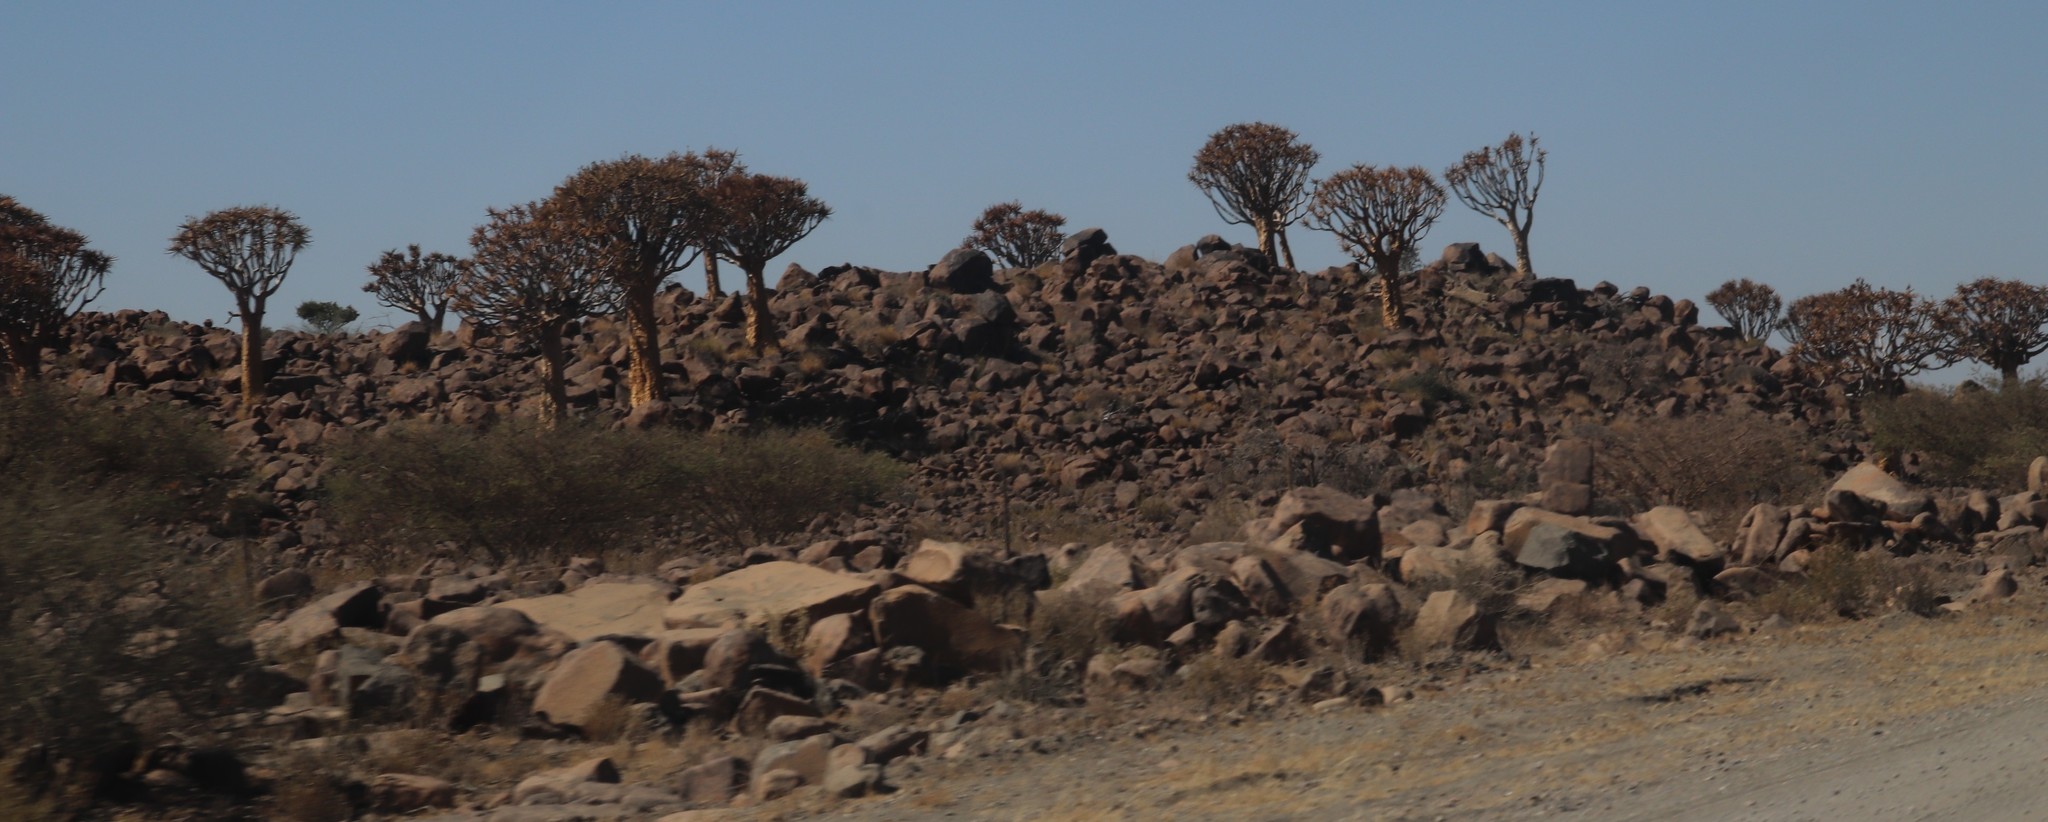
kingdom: Plantae
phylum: Tracheophyta
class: Liliopsida
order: Asparagales
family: Asphodelaceae
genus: Aloidendron
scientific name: Aloidendron dichotomum
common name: Quiver tree
